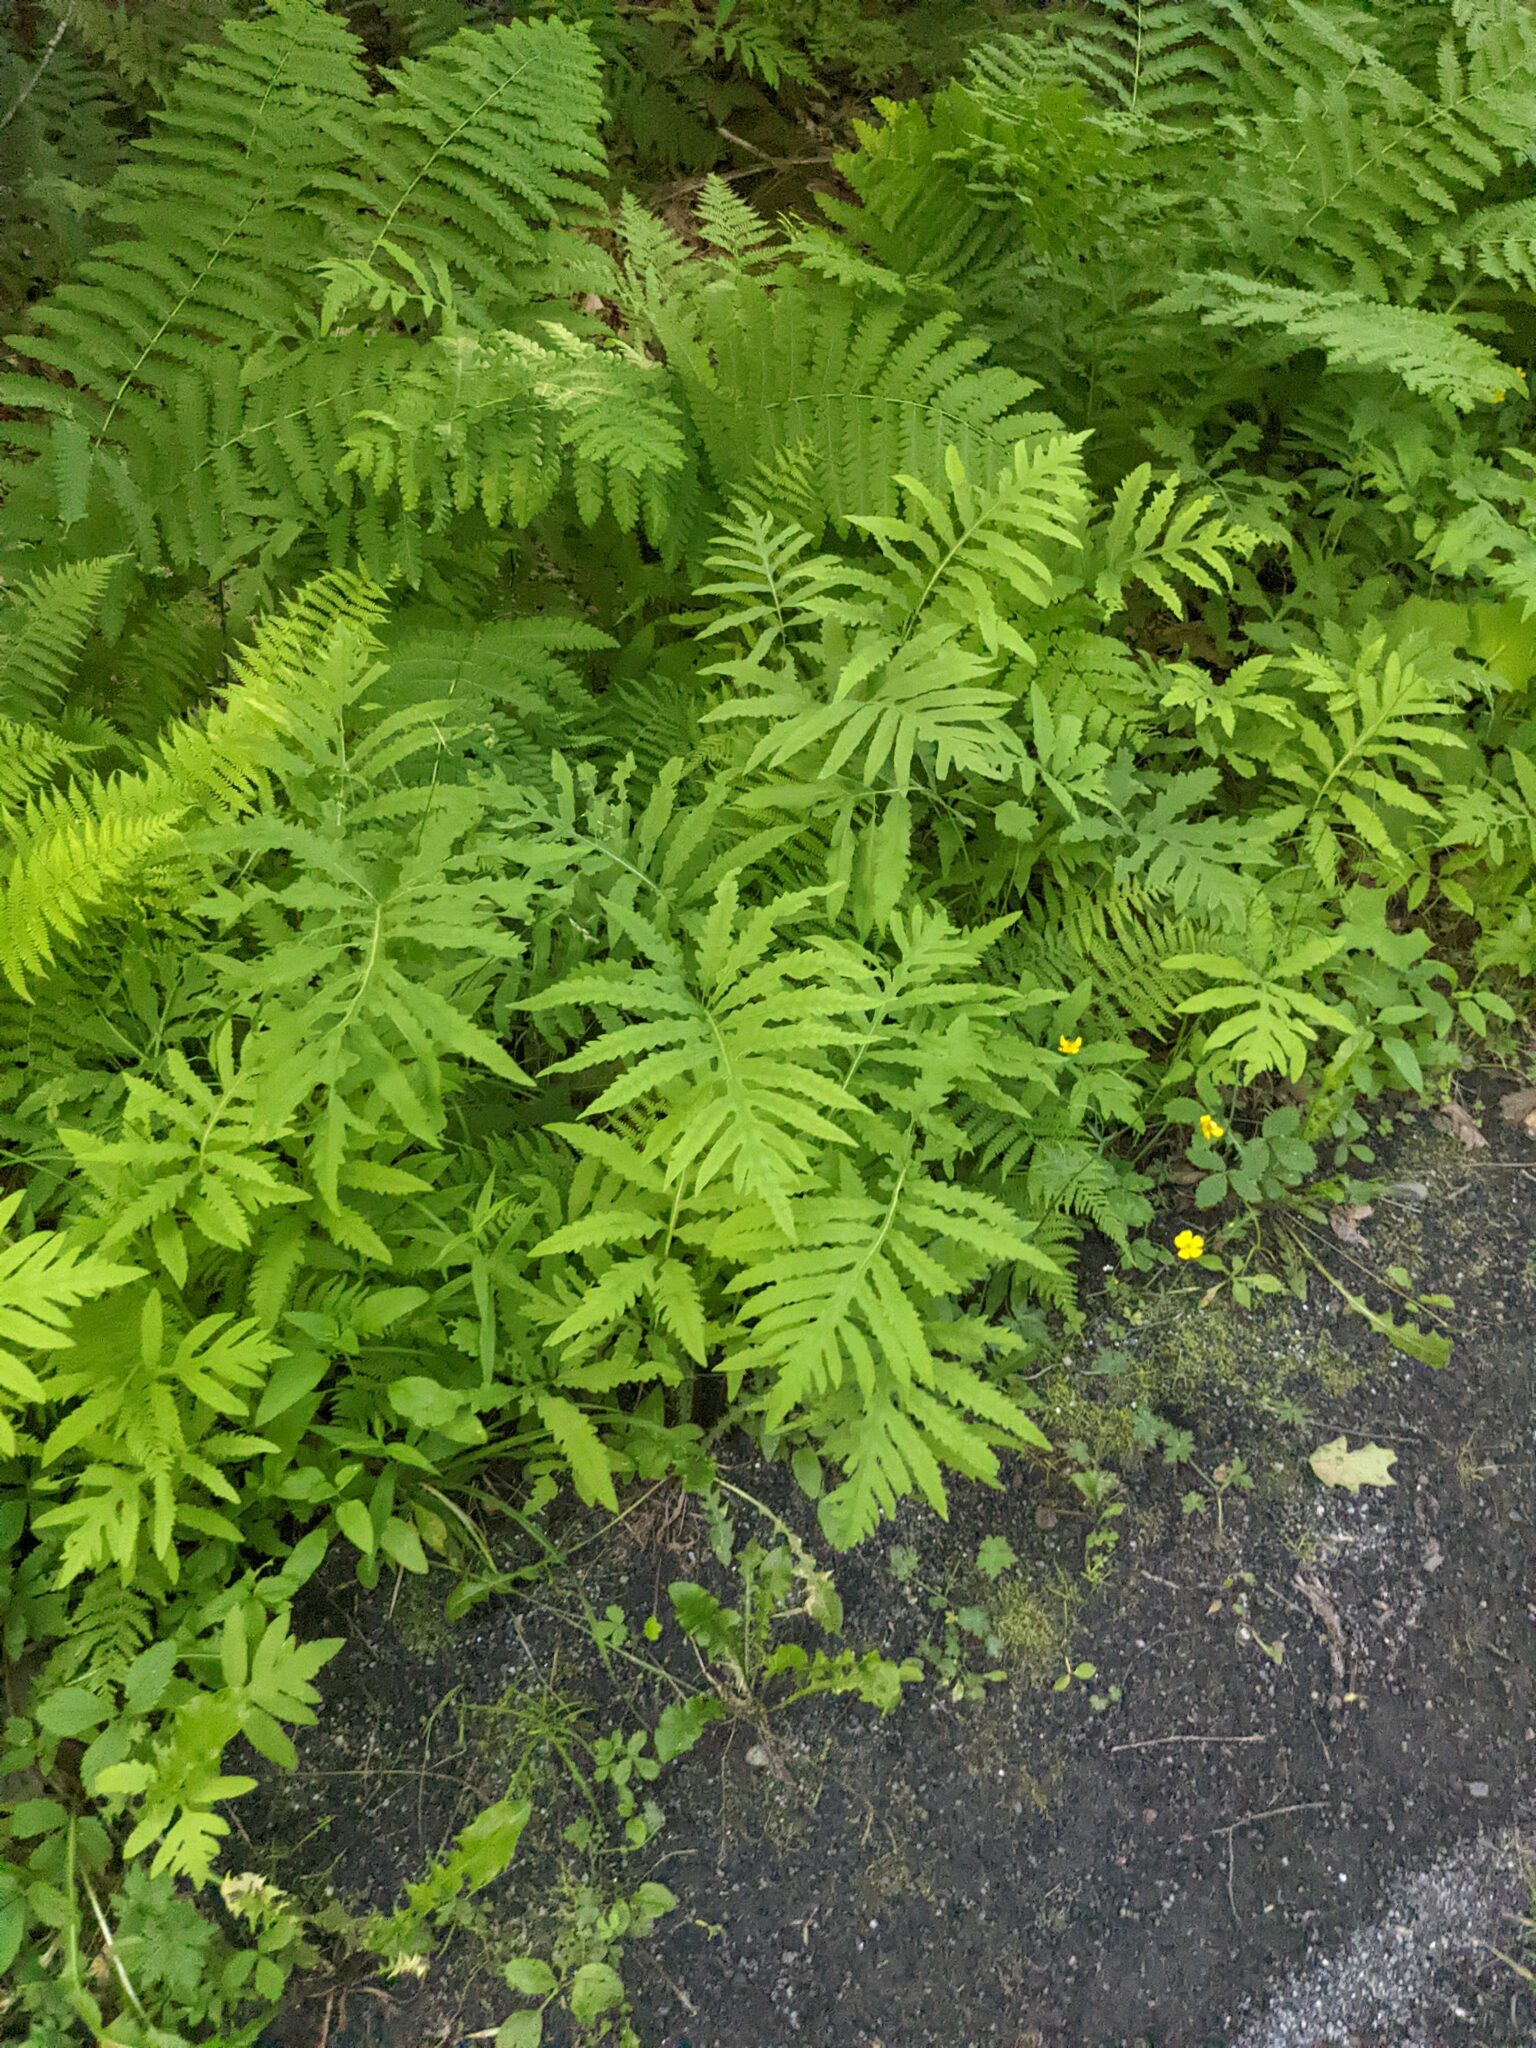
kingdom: Plantae
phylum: Tracheophyta
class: Polypodiopsida
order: Polypodiales
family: Onocleaceae
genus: Onoclea
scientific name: Onoclea sensibilis
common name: Sensitive fern
